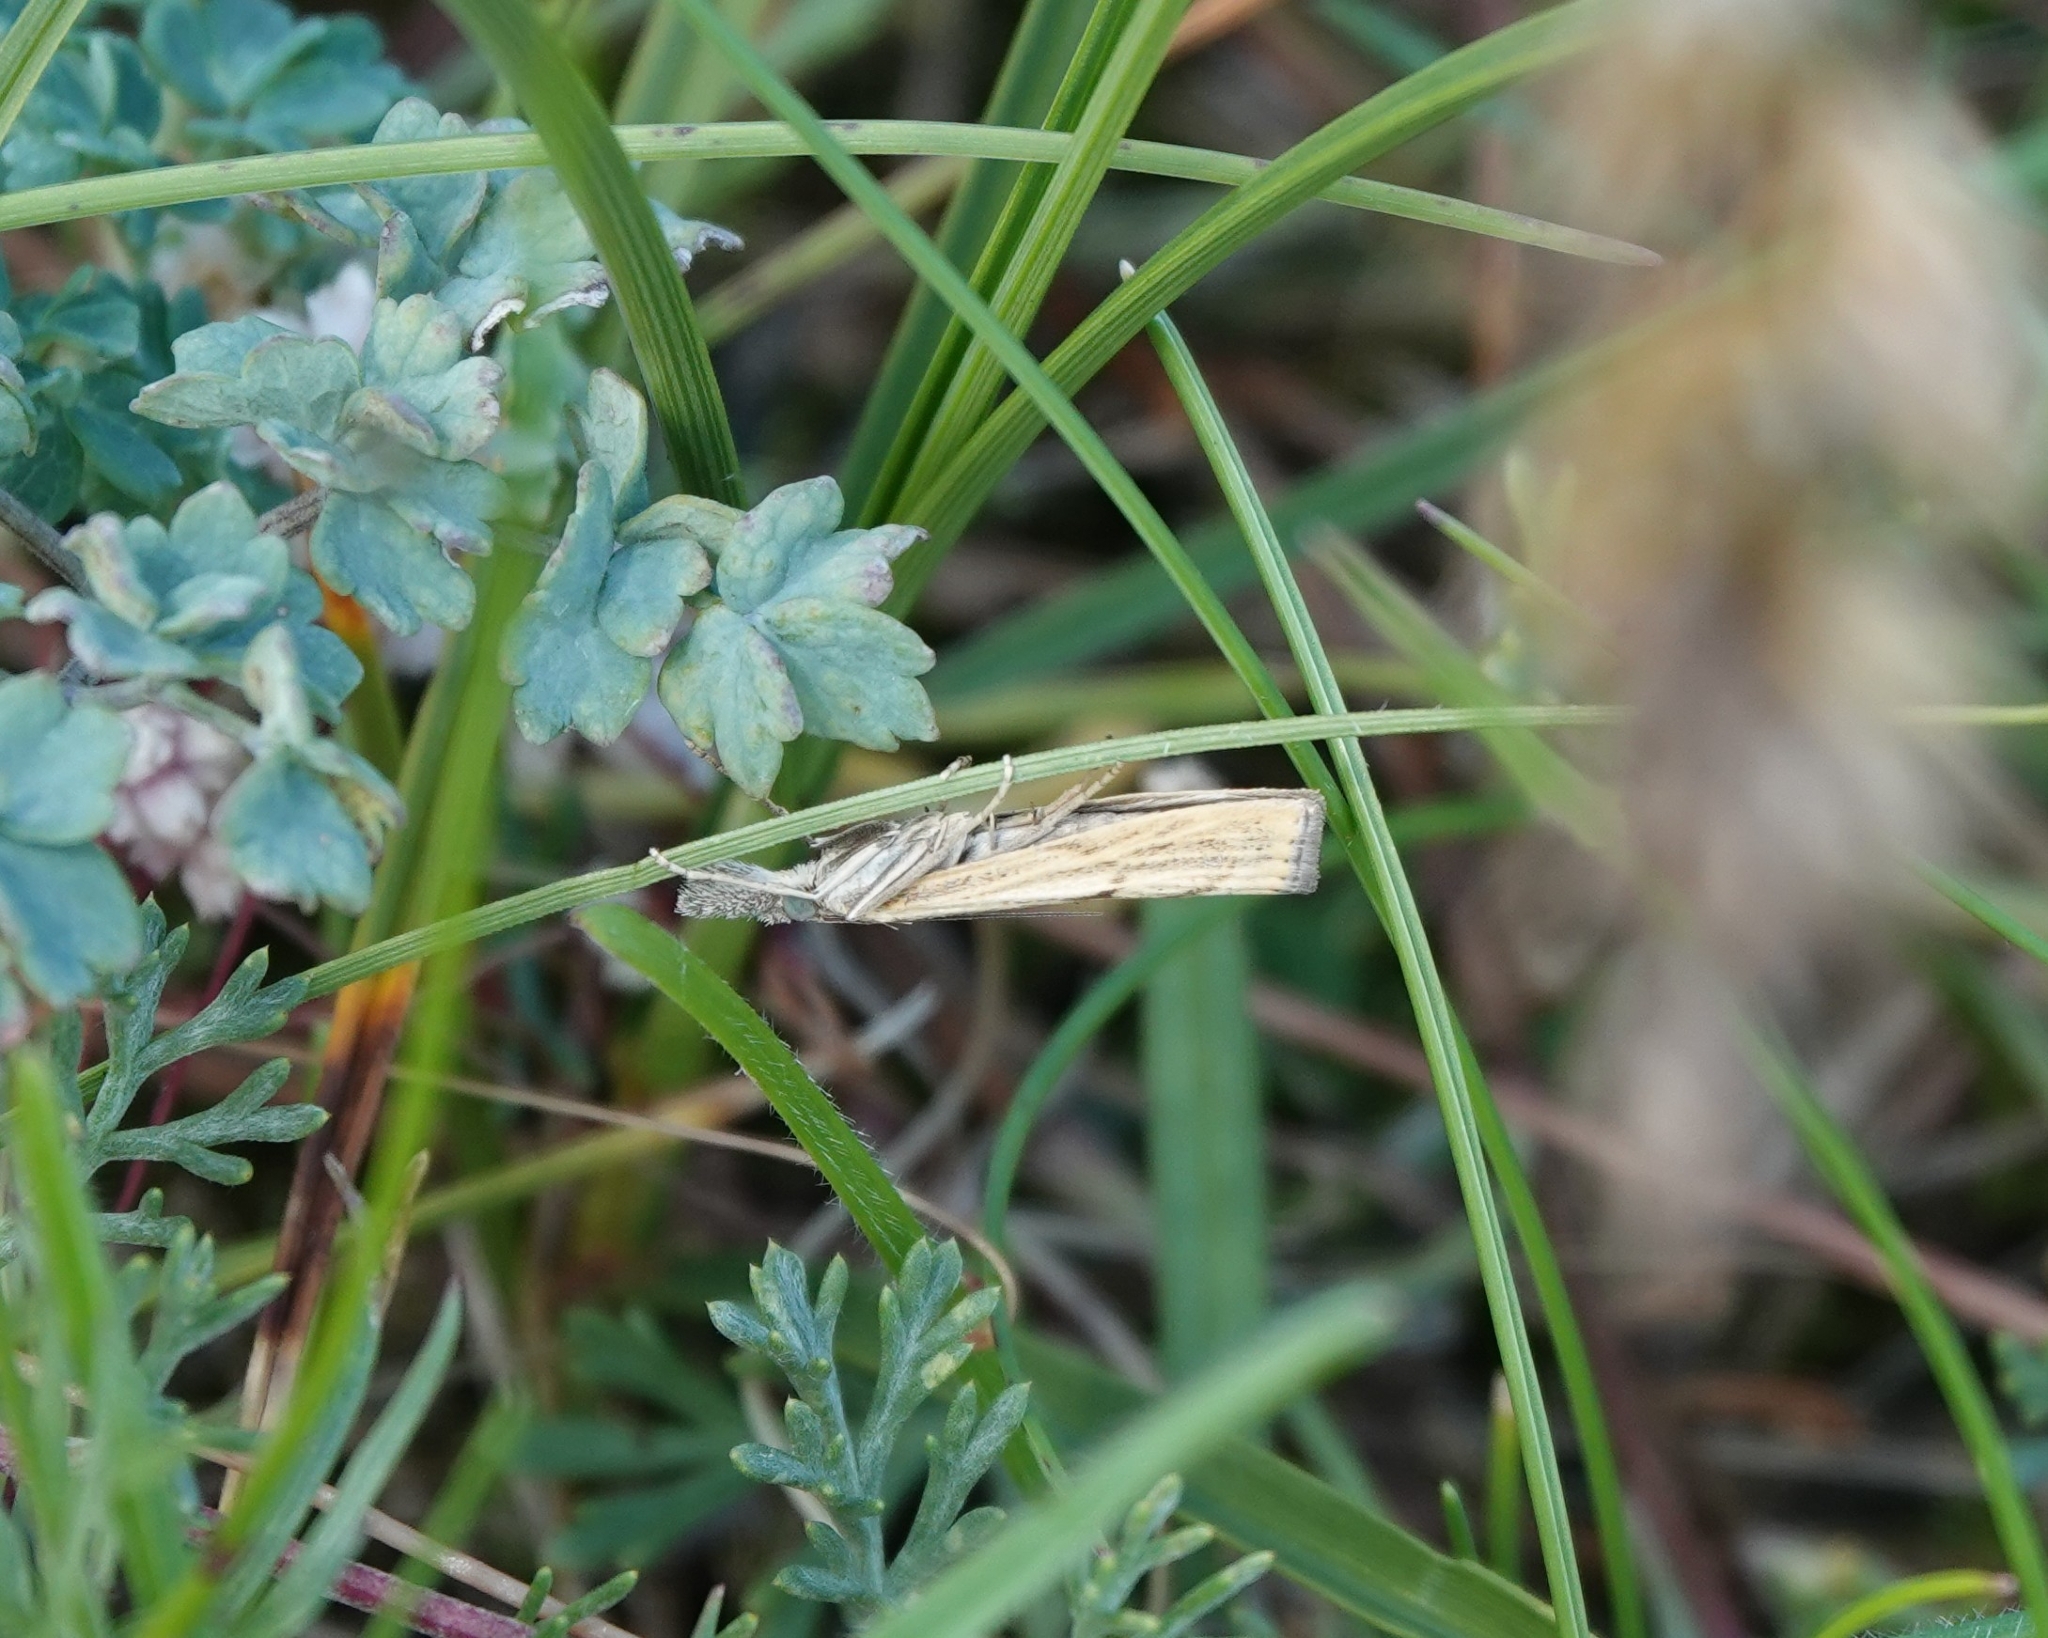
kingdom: Animalia
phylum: Arthropoda
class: Insecta
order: Lepidoptera
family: Crambidae
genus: Agriphila
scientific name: Agriphila inquinatella
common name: Barred grass-veneer
